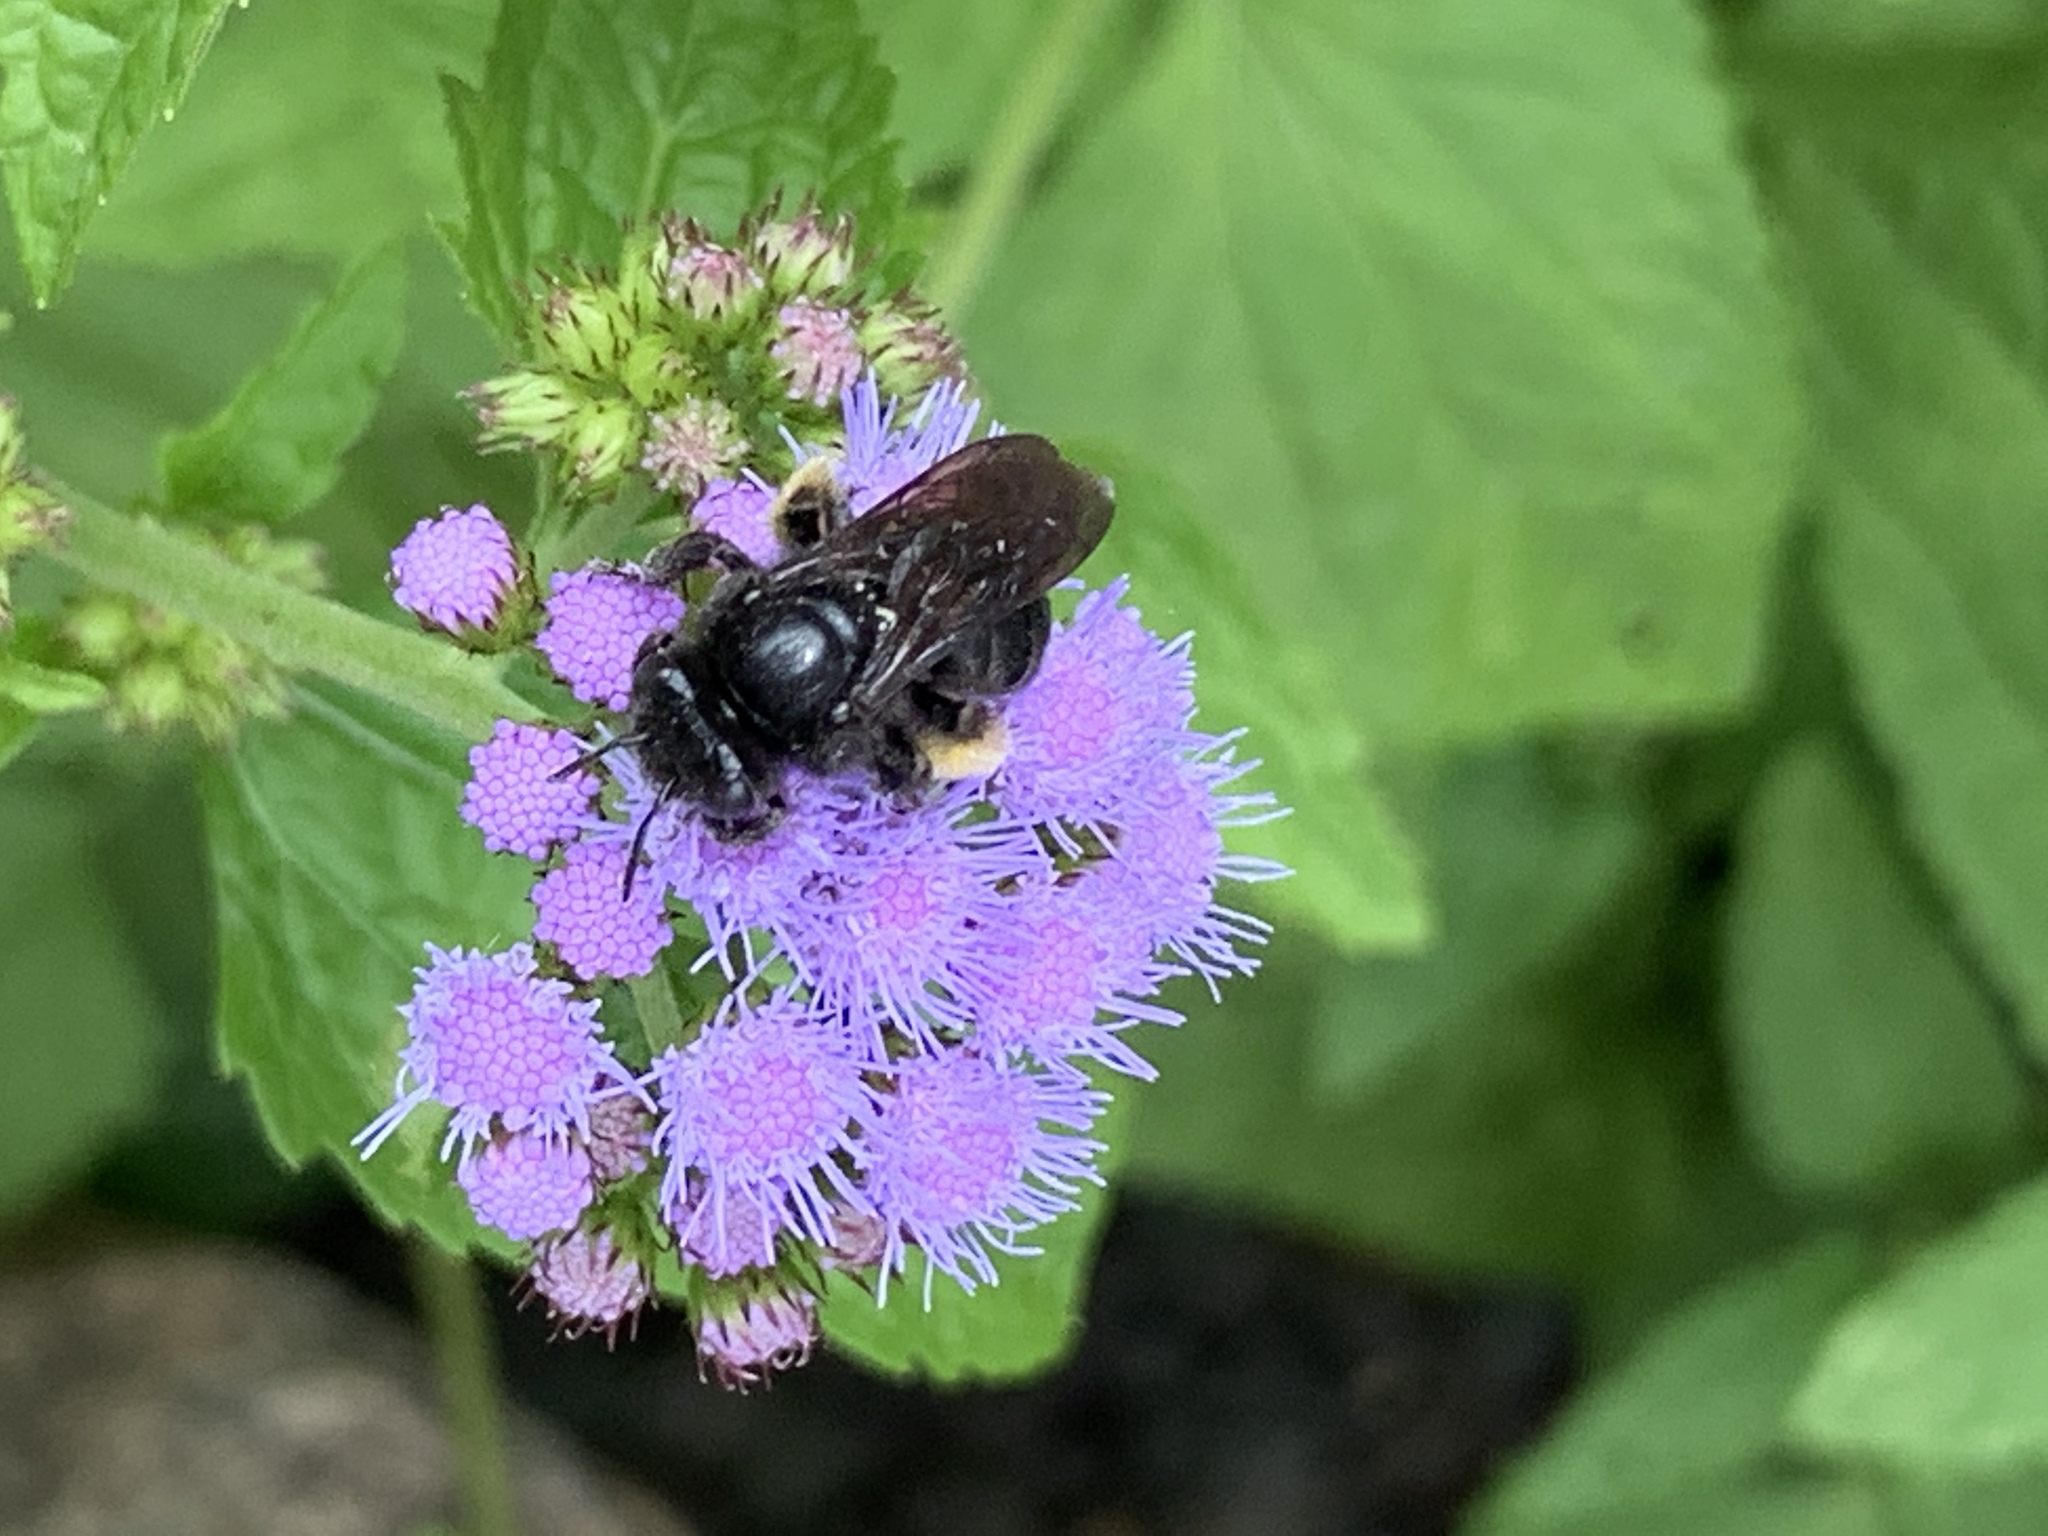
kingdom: Animalia
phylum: Arthropoda
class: Insecta
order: Hymenoptera
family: Apidae
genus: Melissodes
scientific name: Melissodes bimaculatus
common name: Two-spotted long-horned bee
